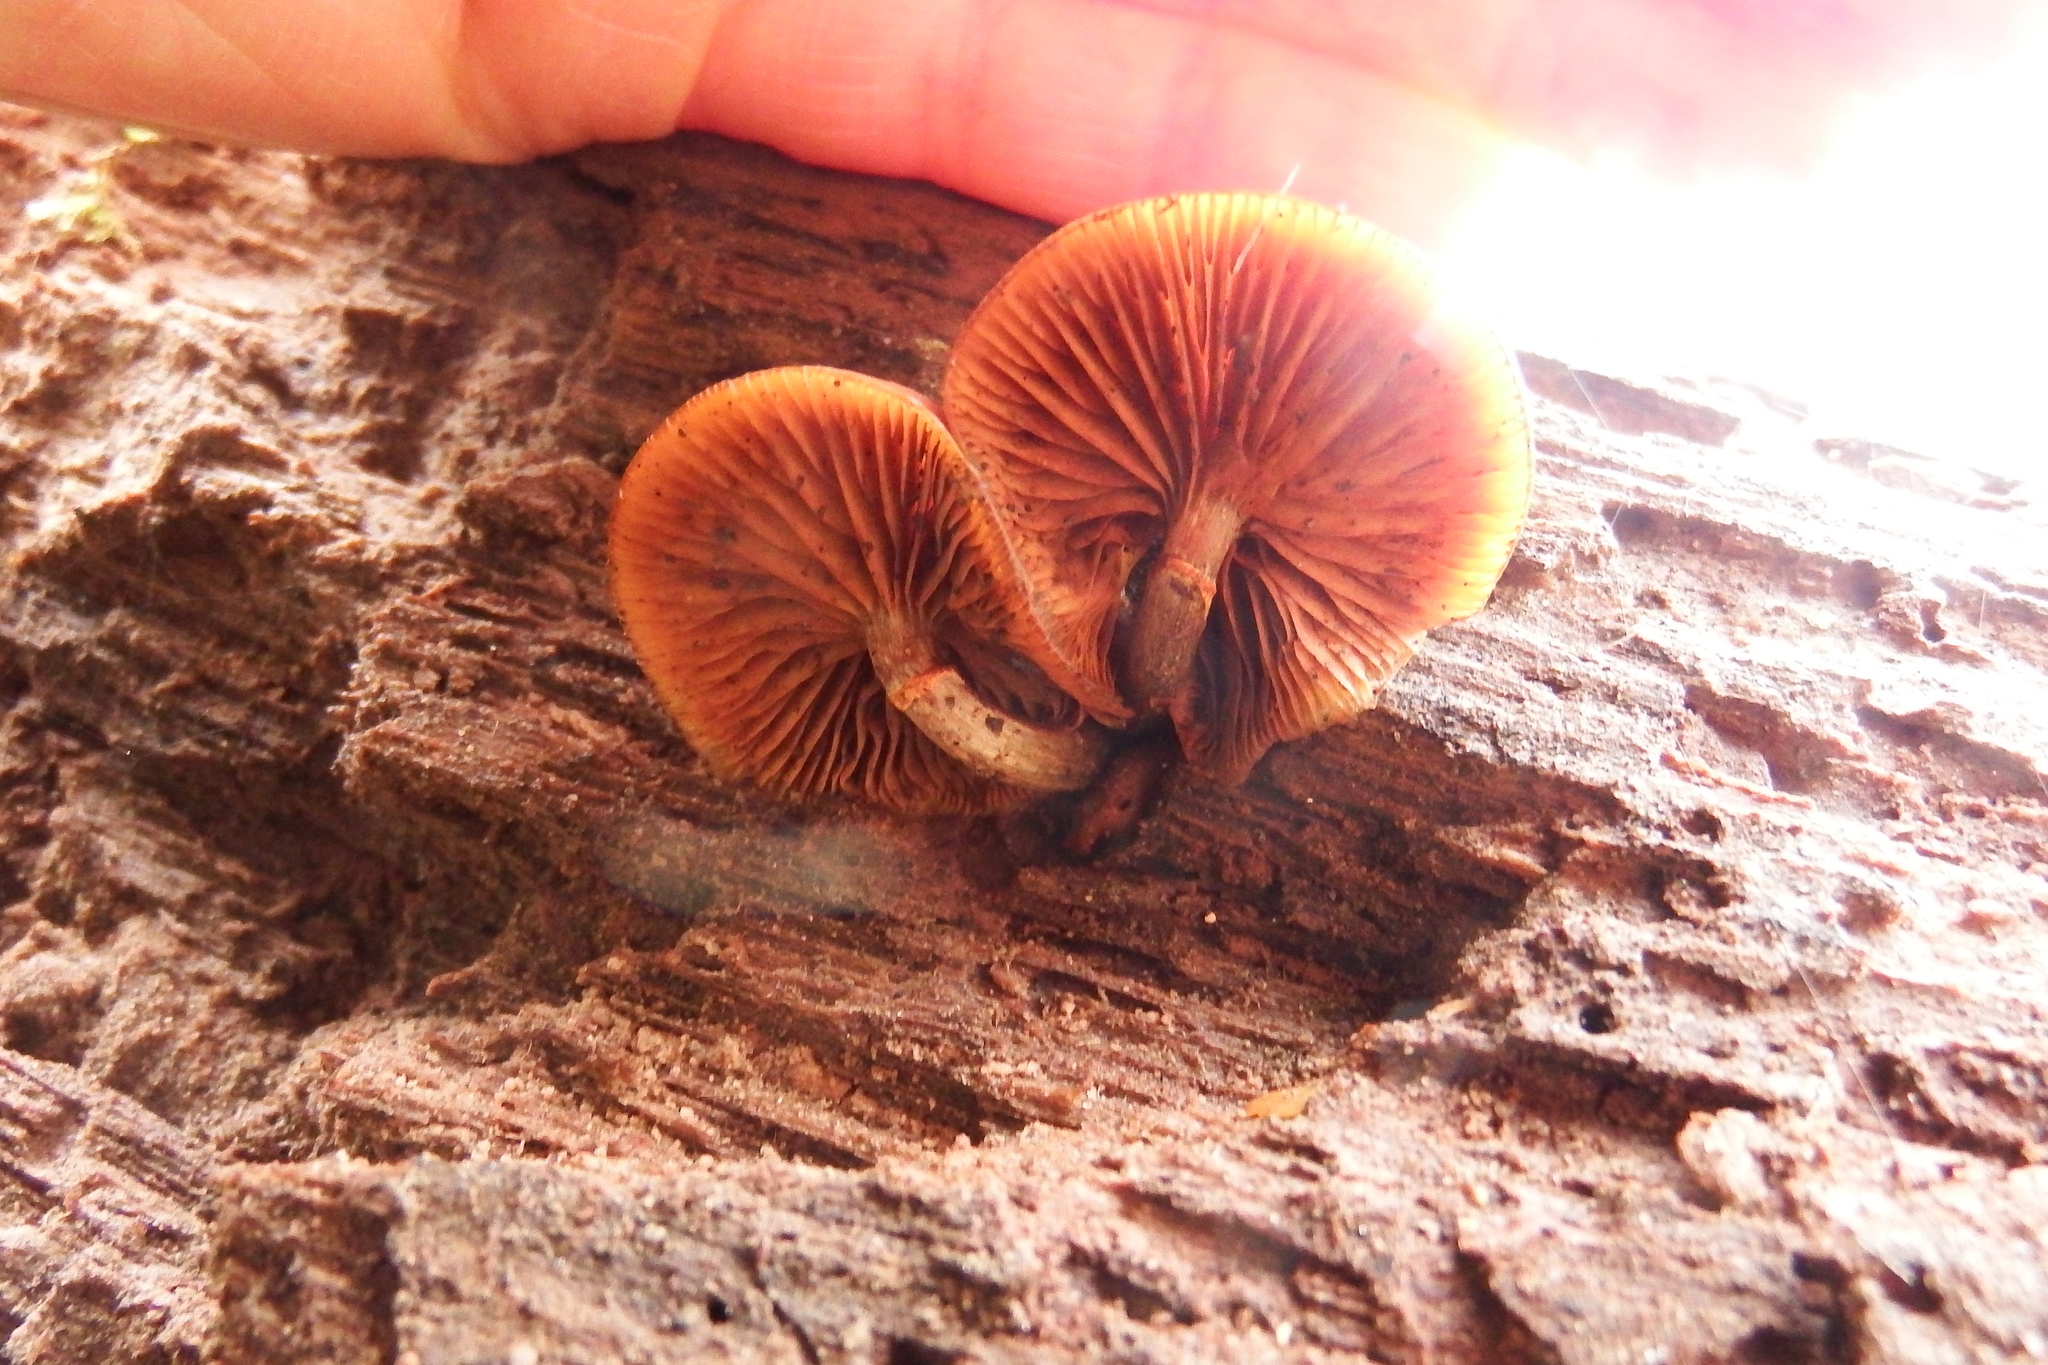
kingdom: Fungi
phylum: Basidiomycota
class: Agaricomycetes
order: Agaricales
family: Hymenogastraceae
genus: Galerina
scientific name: Galerina marginata
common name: Funeral bell
